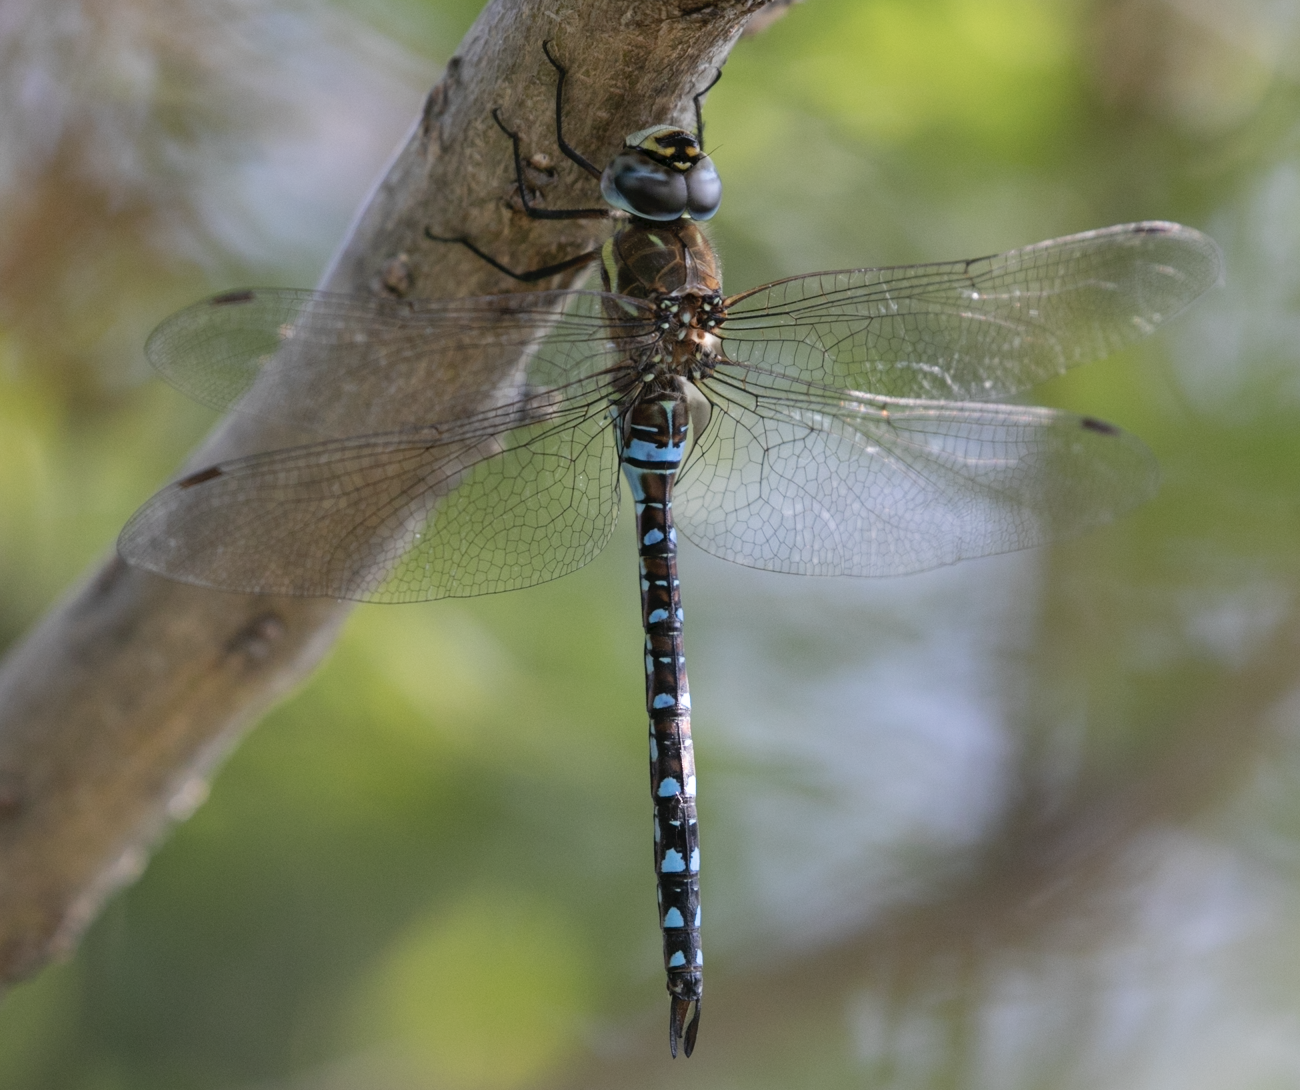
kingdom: Animalia
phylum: Arthropoda
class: Insecta
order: Odonata
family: Aeshnidae
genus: Aeshna
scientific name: Aeshna mixta
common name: Migrant hawker
